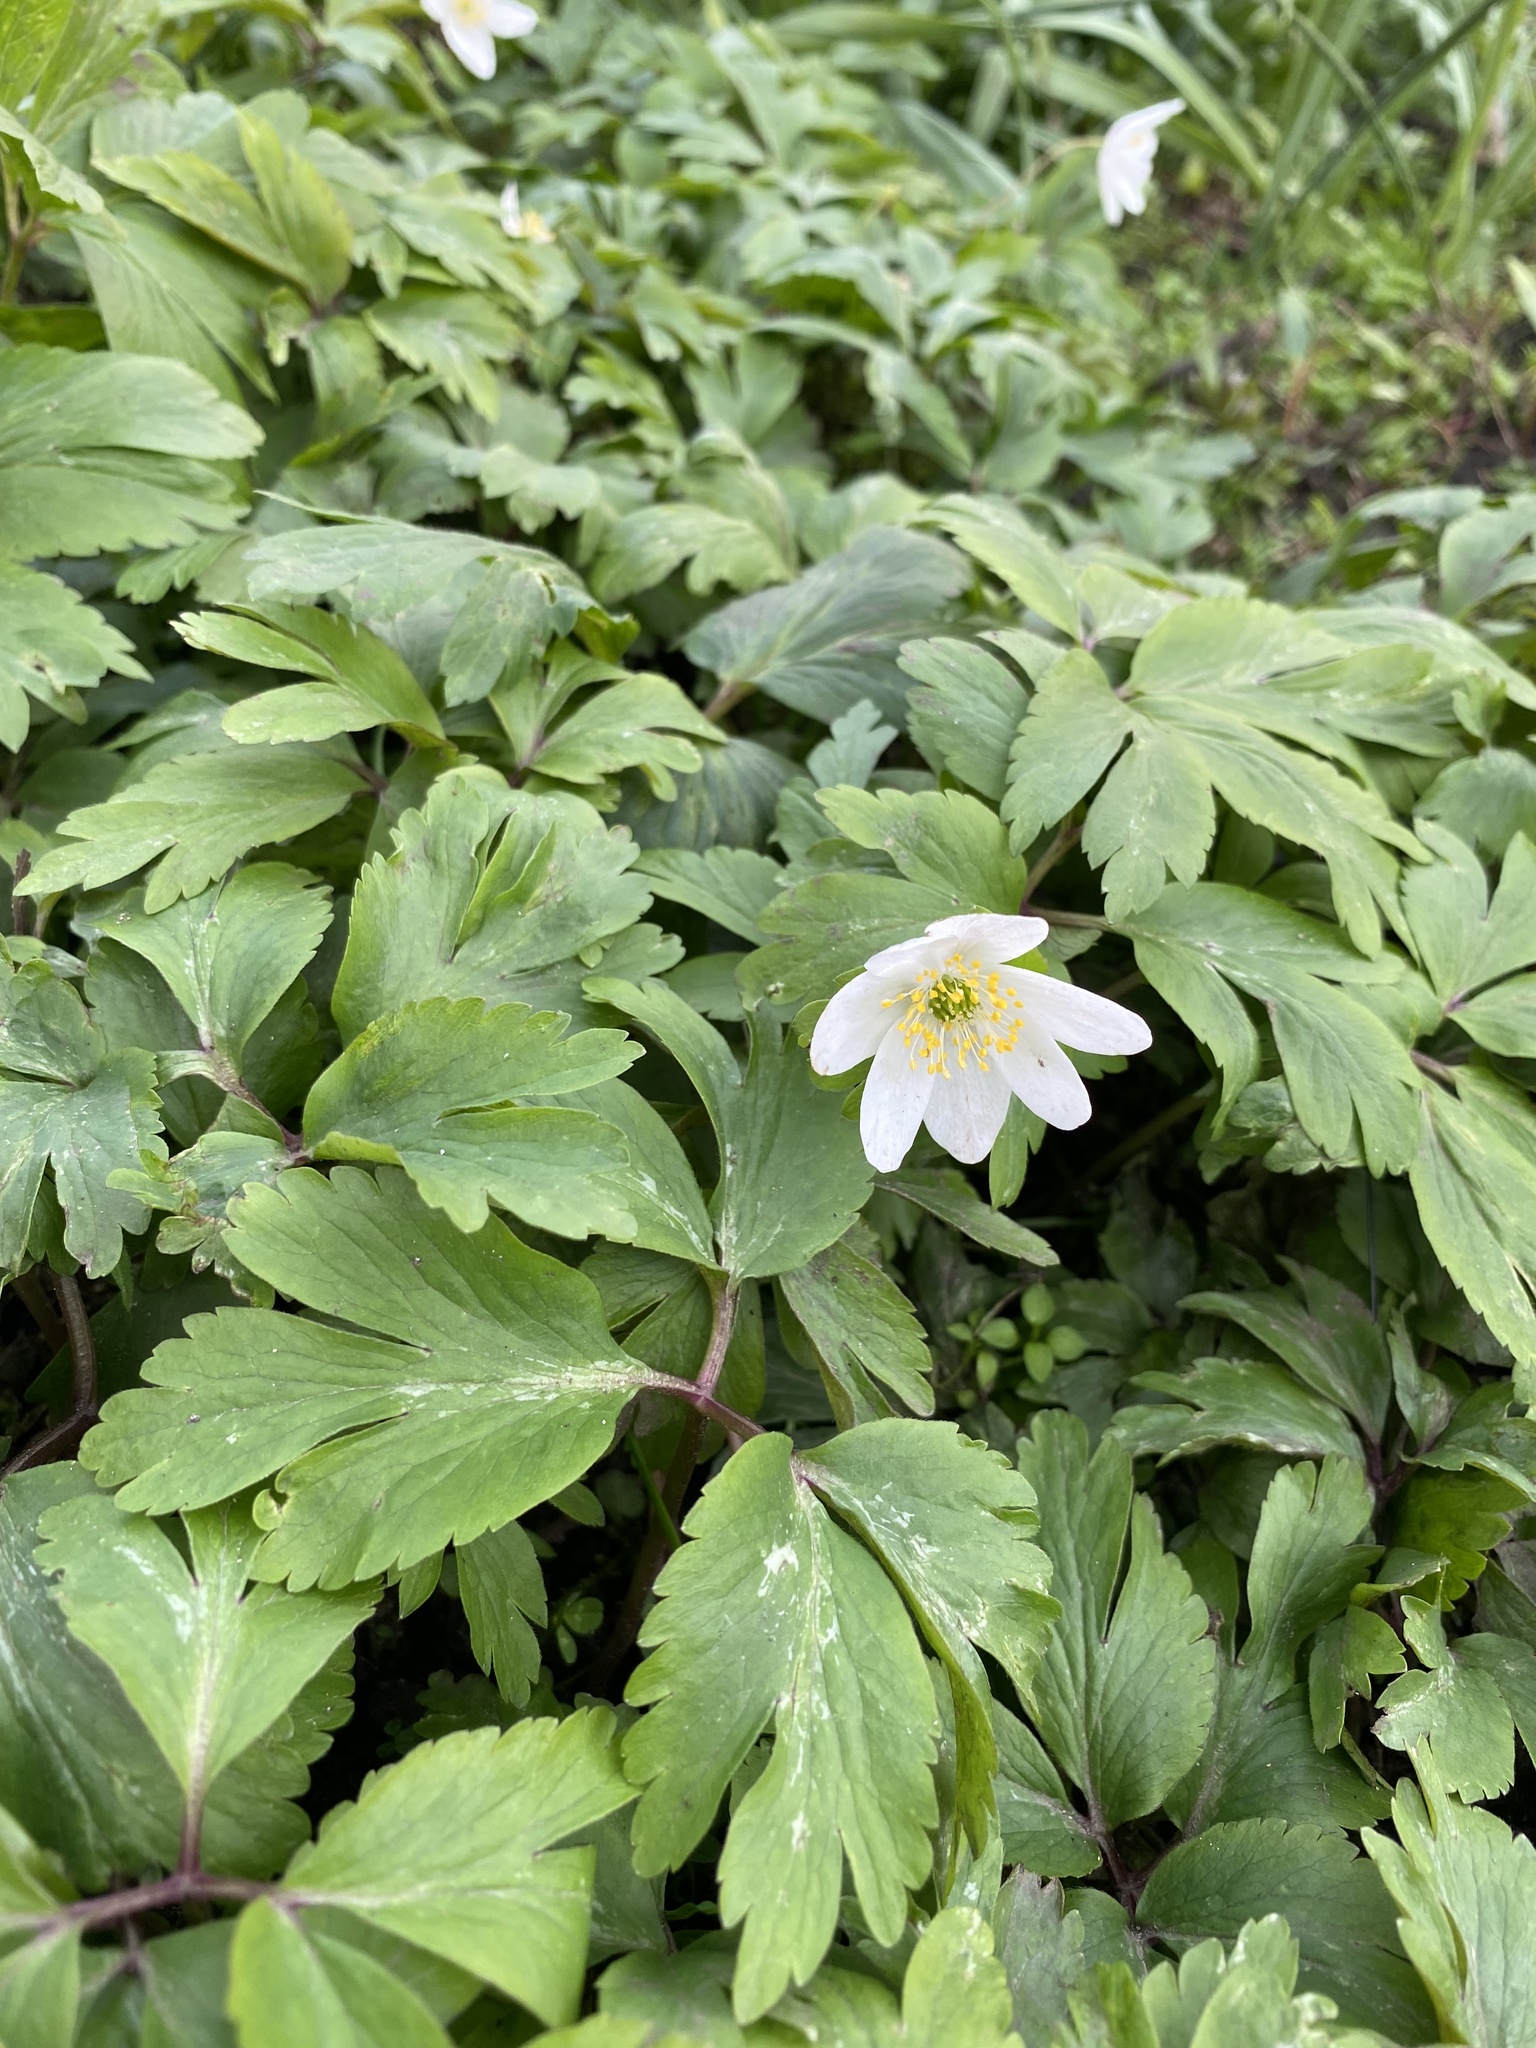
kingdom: Plantae
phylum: Tracheophyta
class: Magnoliopsida
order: Ranunculales
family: Ranunculaceae
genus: Anemone
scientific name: Anemone nemorosa
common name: Wood anemone
